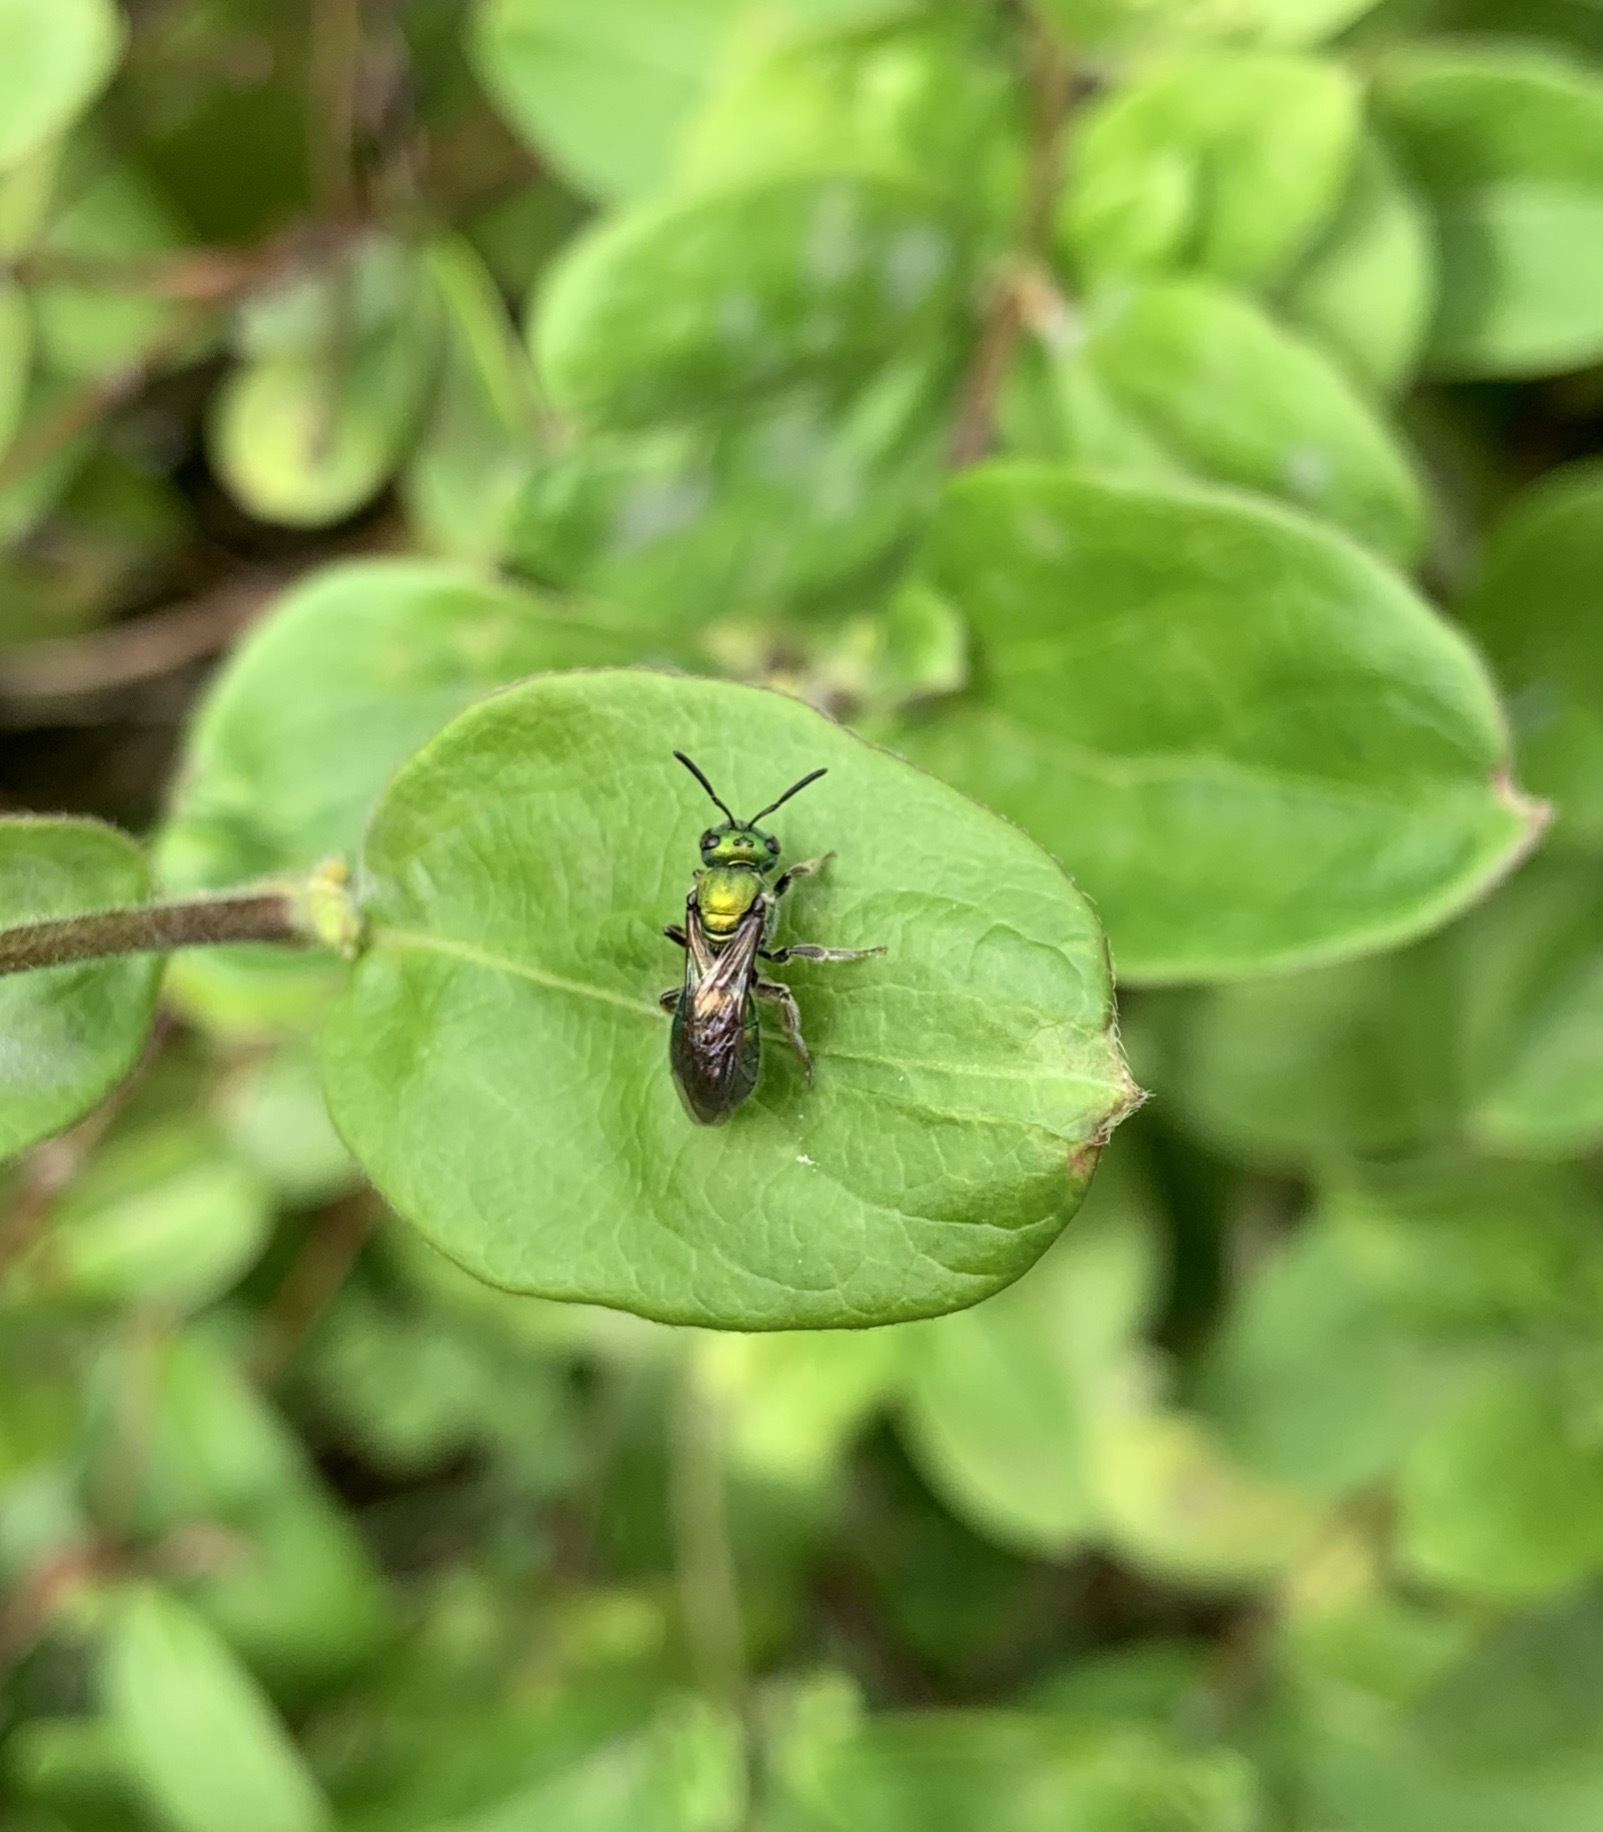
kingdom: Animalia
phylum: Arthropoda
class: Insecta
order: Hymenoptera
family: Halictidae
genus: Augochlora
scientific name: Augochlora pura
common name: Pure green sweat bee
